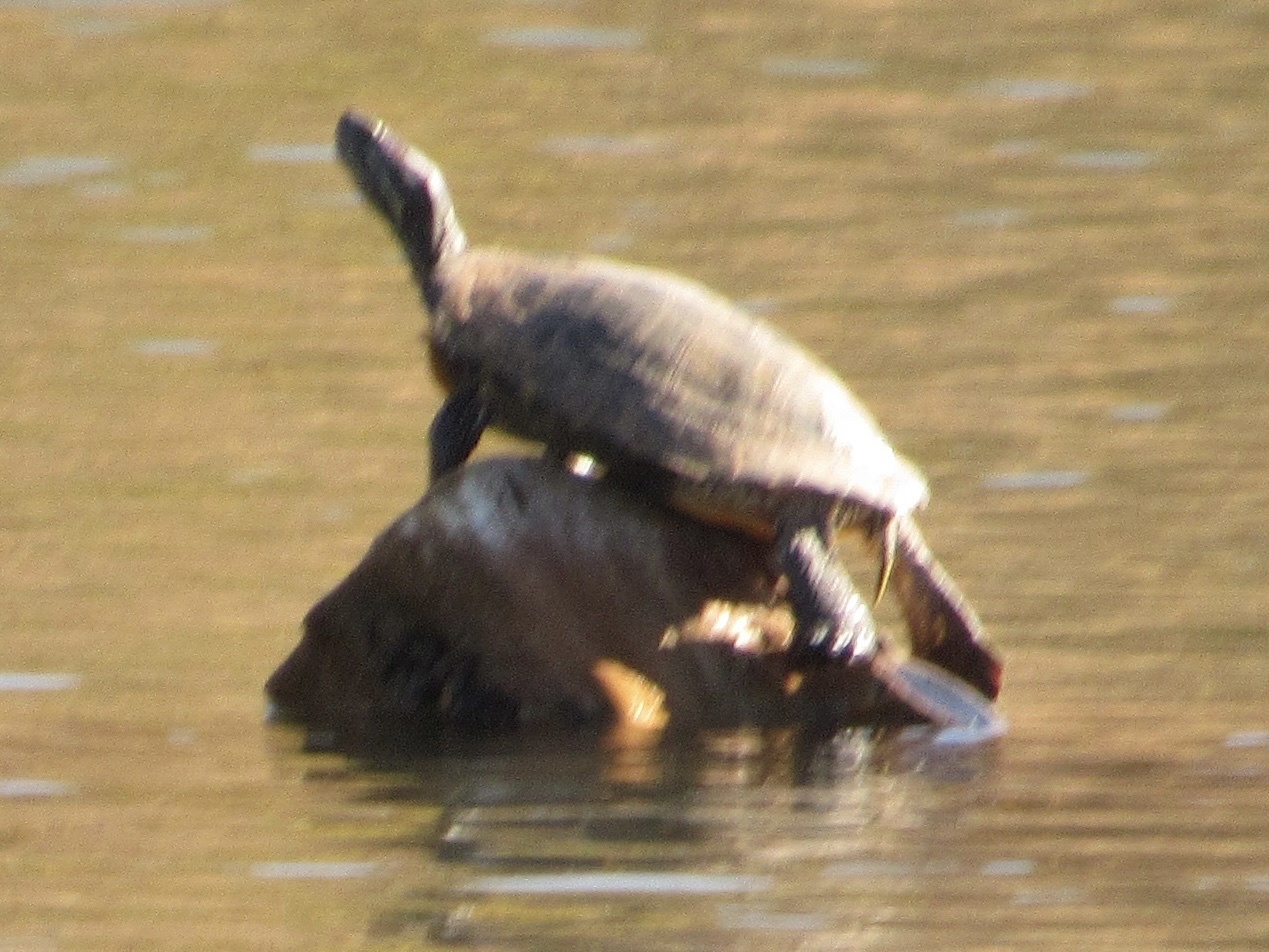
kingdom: Animalia
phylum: Chordata
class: Testudines
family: Emydidae
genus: Trachemys
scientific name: Trachemys scripta
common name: Slider
